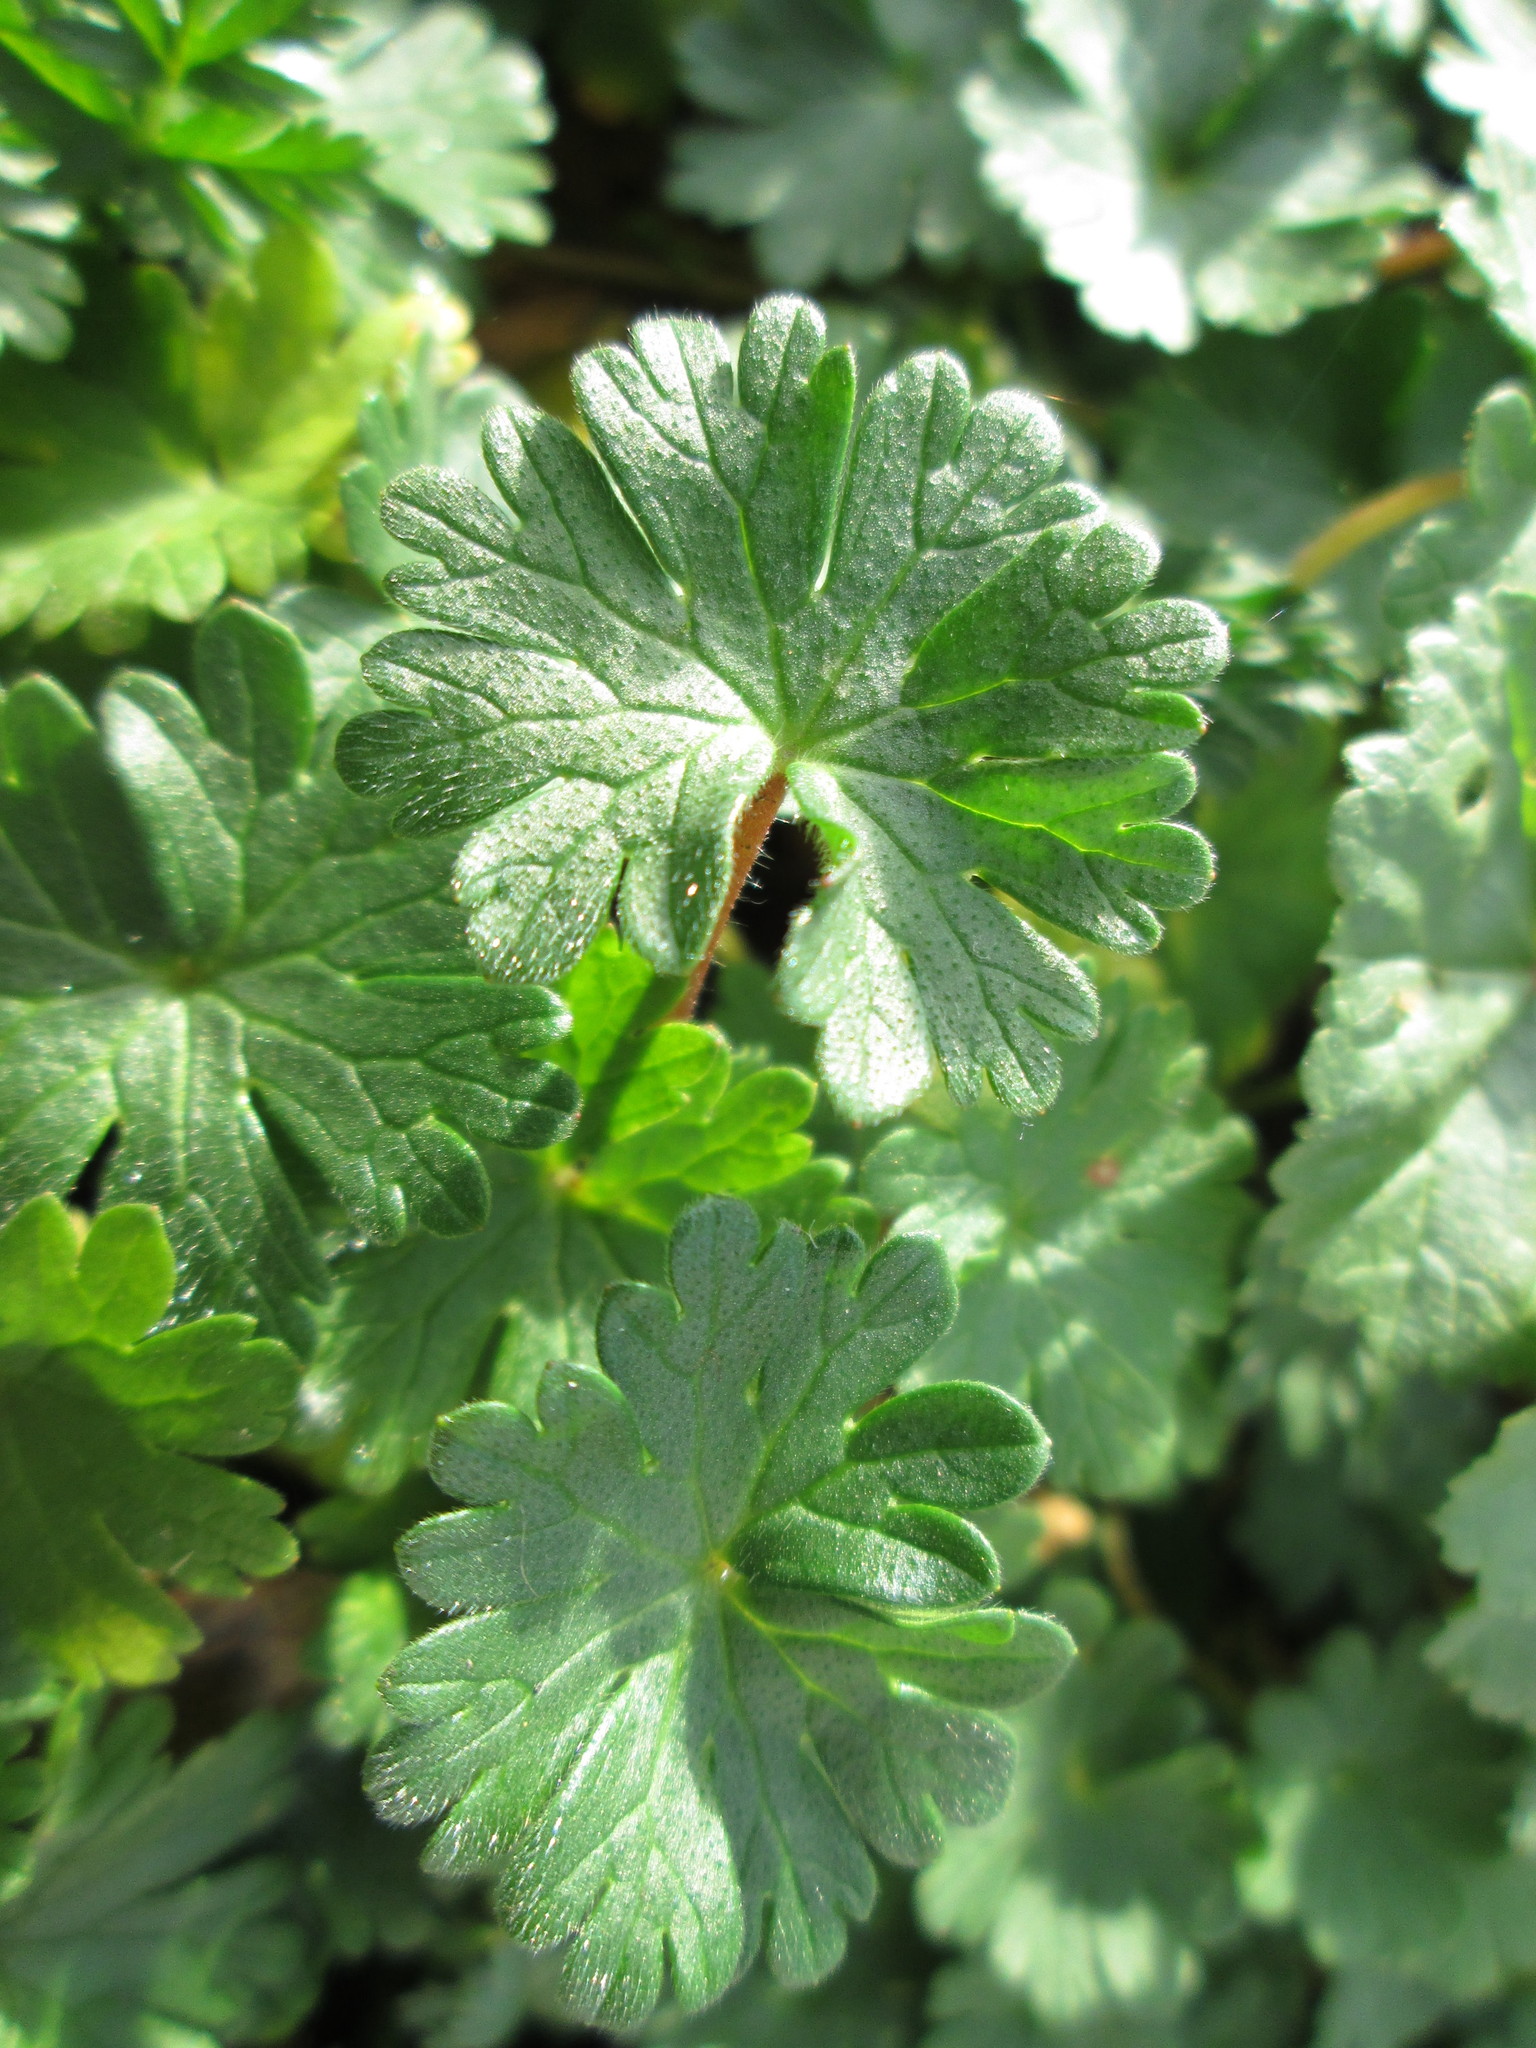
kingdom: Plantae
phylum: Tracheophyta
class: Magnoliopsida
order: Geraniales
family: Geraniaceae
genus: Geranium
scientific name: Geranium molle
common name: Dove's-foot crane's-bill
